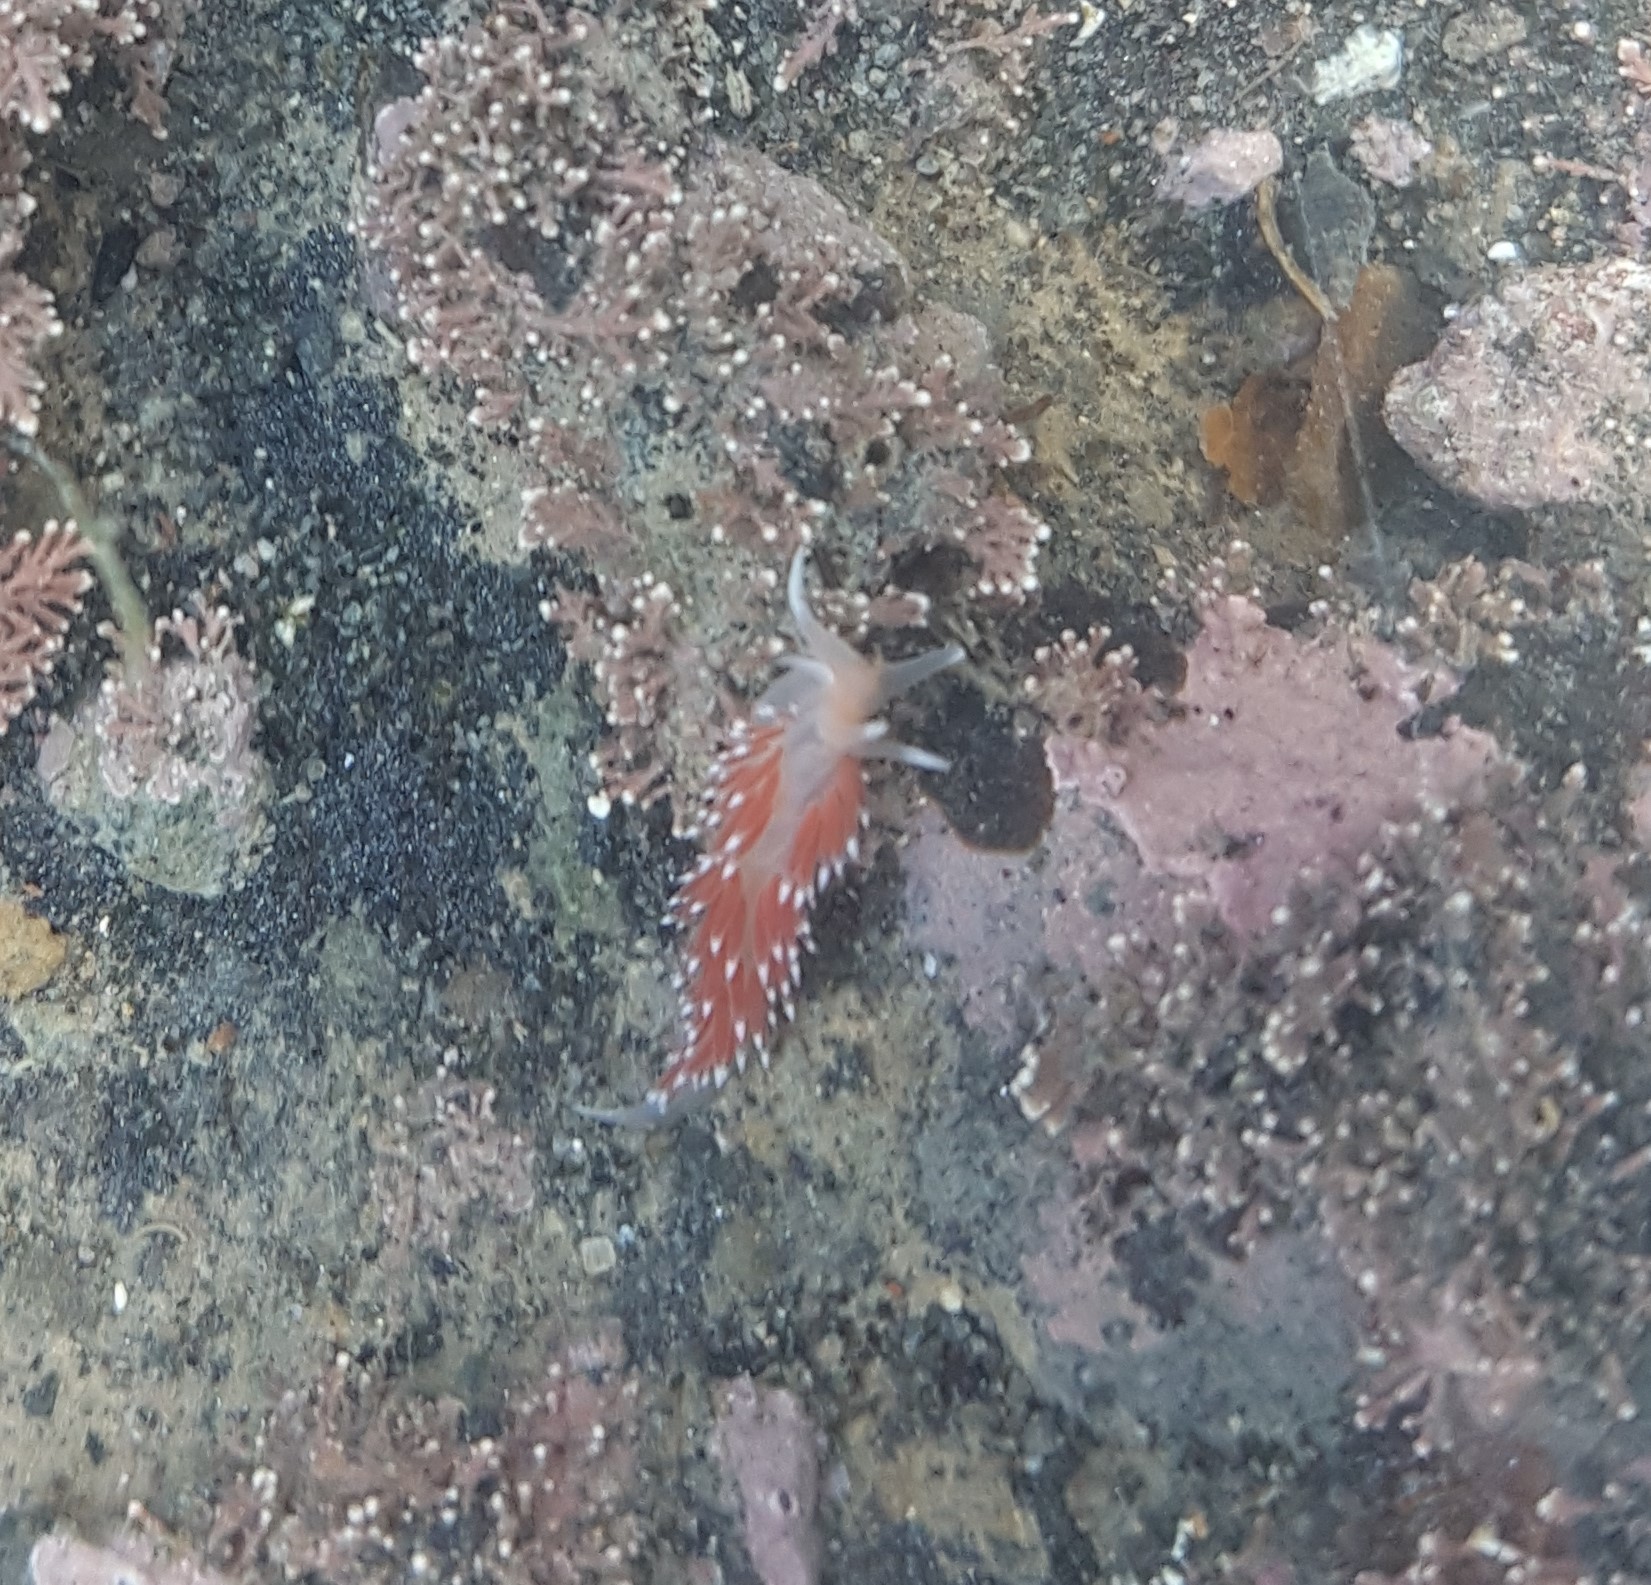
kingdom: Animalia
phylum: Mollusca
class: Gastropoda
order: Nudibranchia
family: Facelinidae
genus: Phidiana
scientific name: Phidiana milleri
